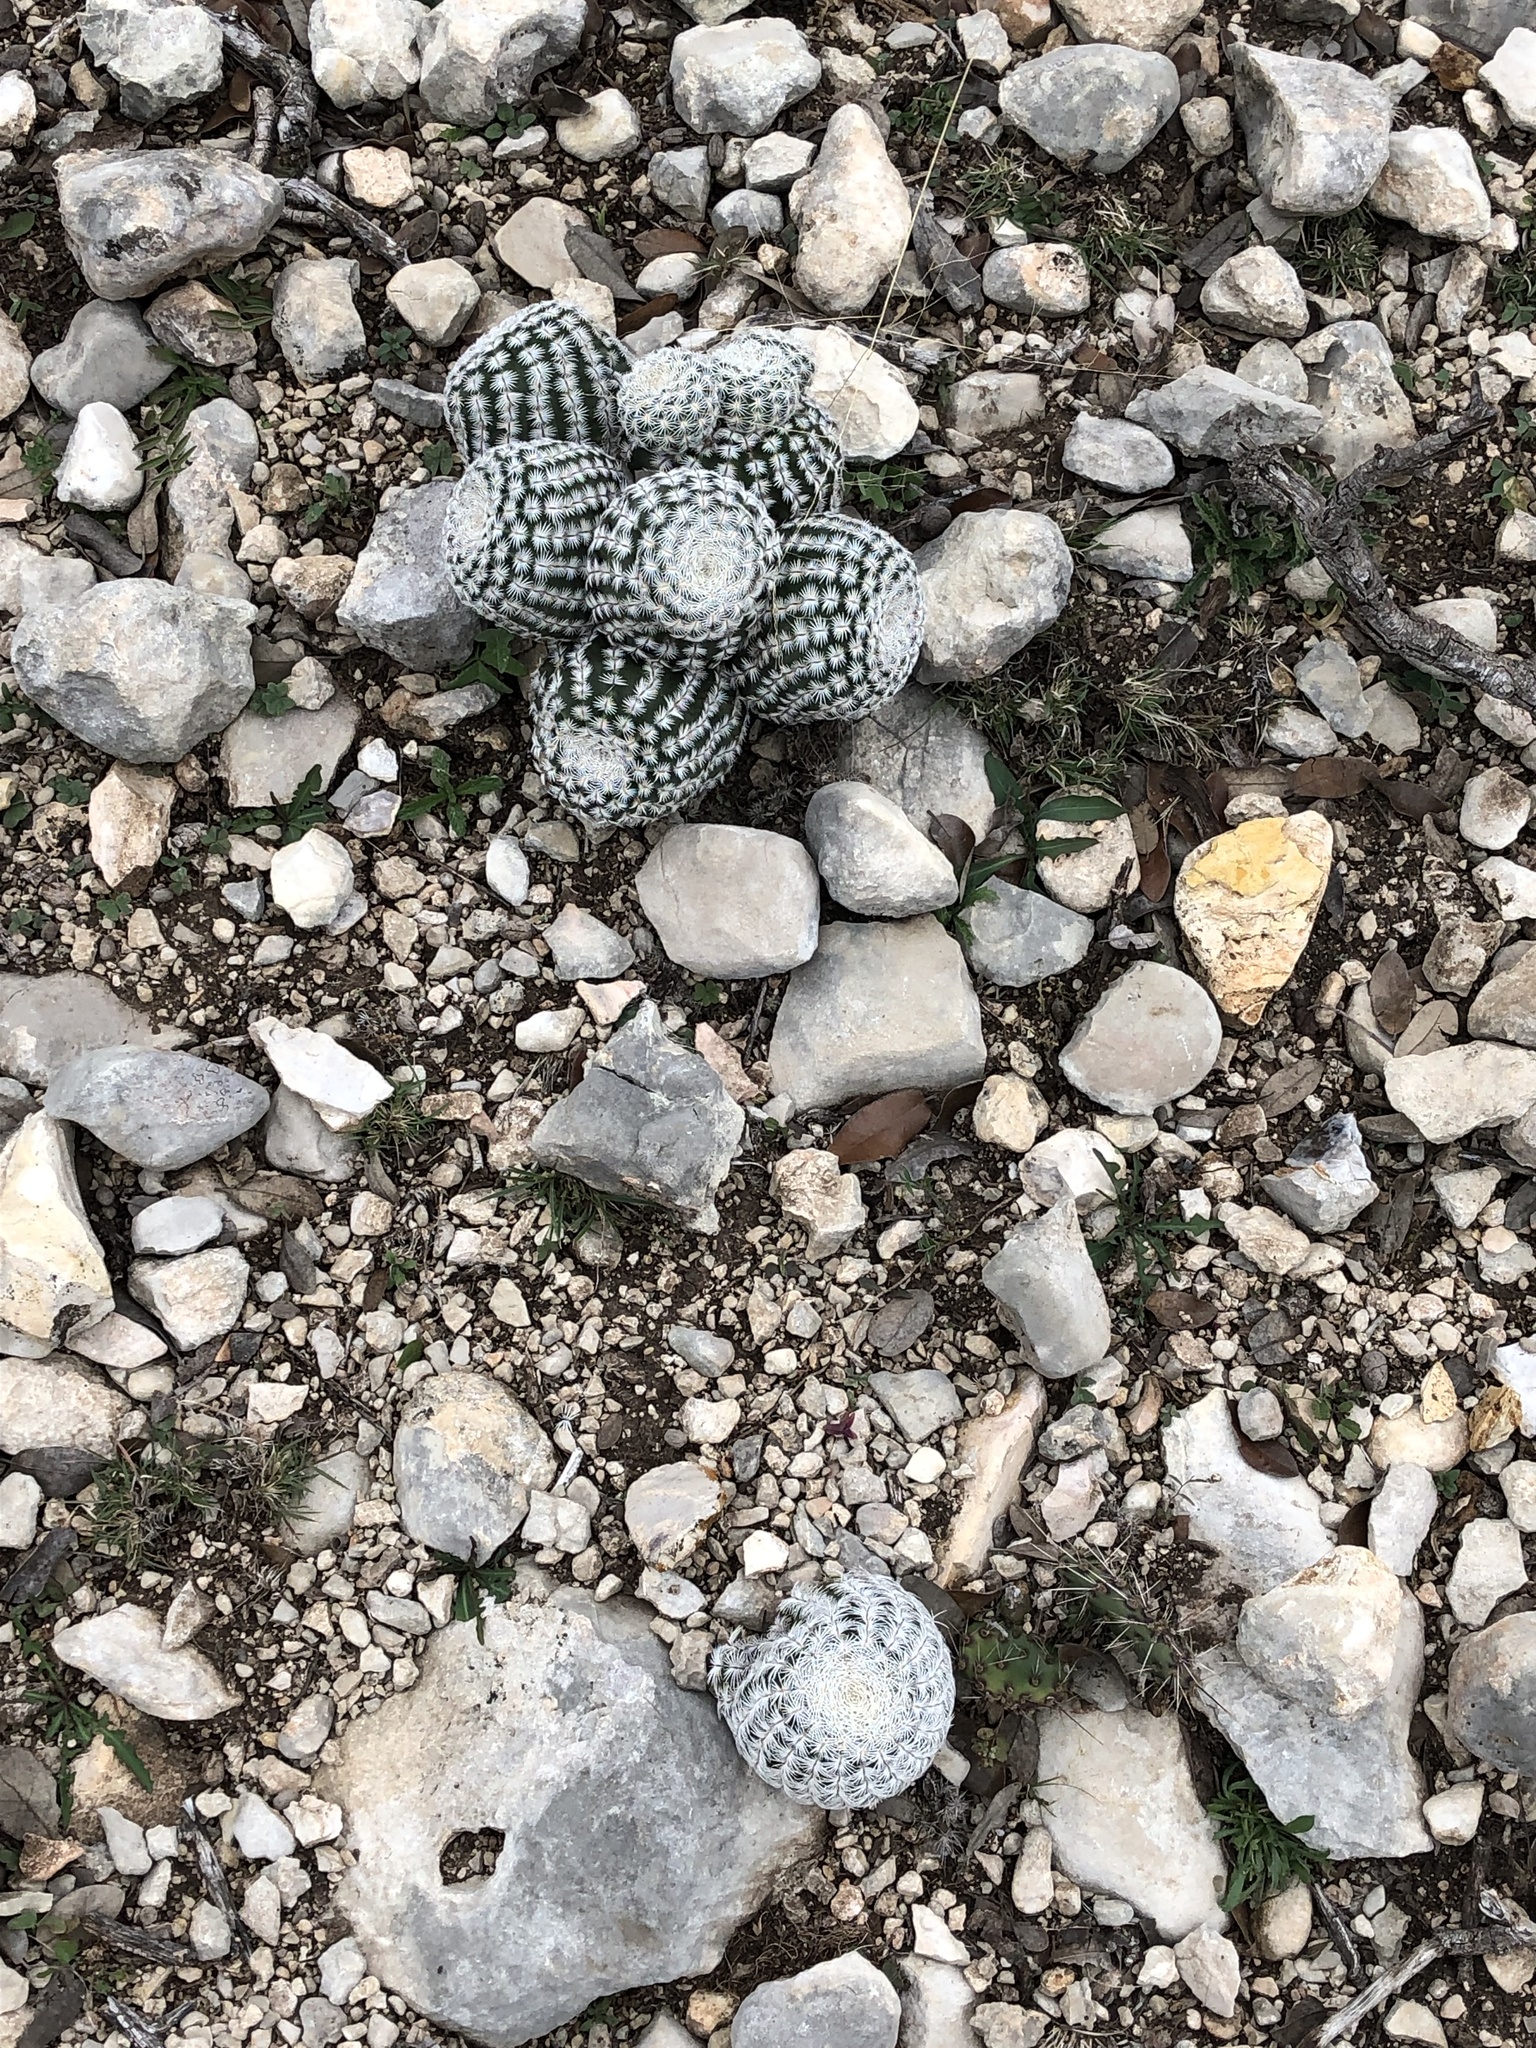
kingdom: Plantae
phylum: Tracheophyta
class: Magnoliopsida
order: Caryophyllales
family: Cactaceae
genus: Echinocereus
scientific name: Echinocereus reichenbachii
